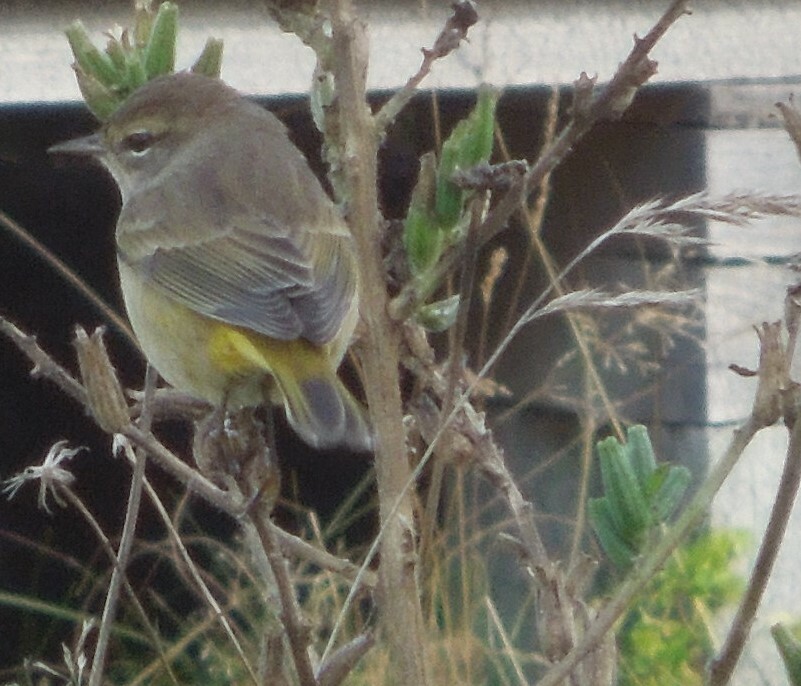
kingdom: Animalia
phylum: Chordata
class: Aves
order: Passeriformes
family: Parulidae
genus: Setophaga
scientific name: Setophaga palmarum
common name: Palm warbler
